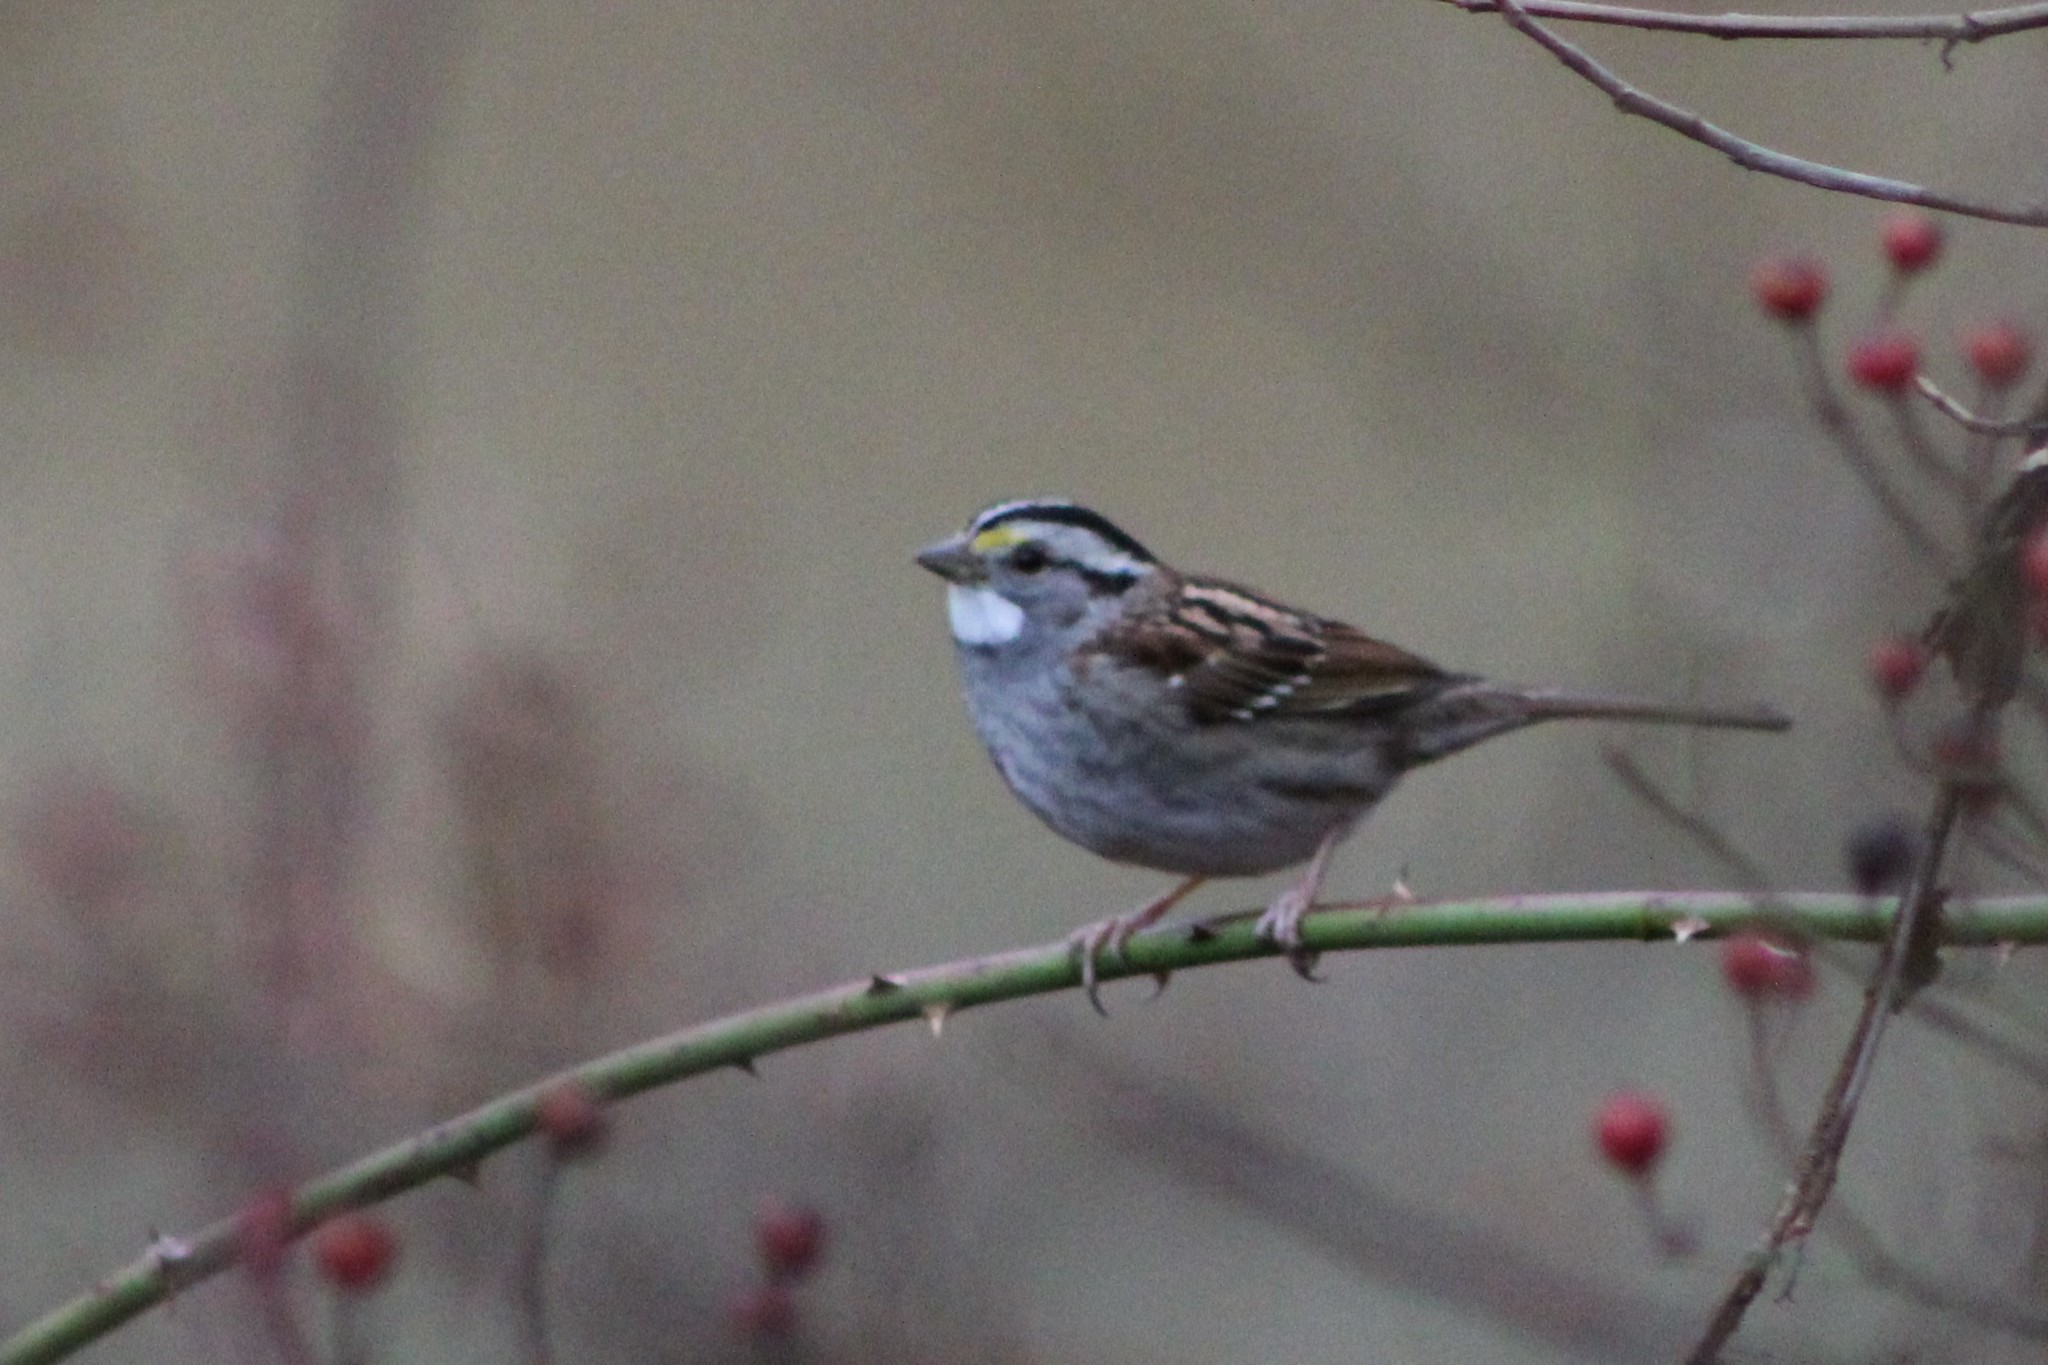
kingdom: Animalia
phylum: Chordata
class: Aves
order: Passeriformes
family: Passerellidae
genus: Zonotrichia
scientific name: Zonotrichia albicollis
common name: White-throated sparrow
